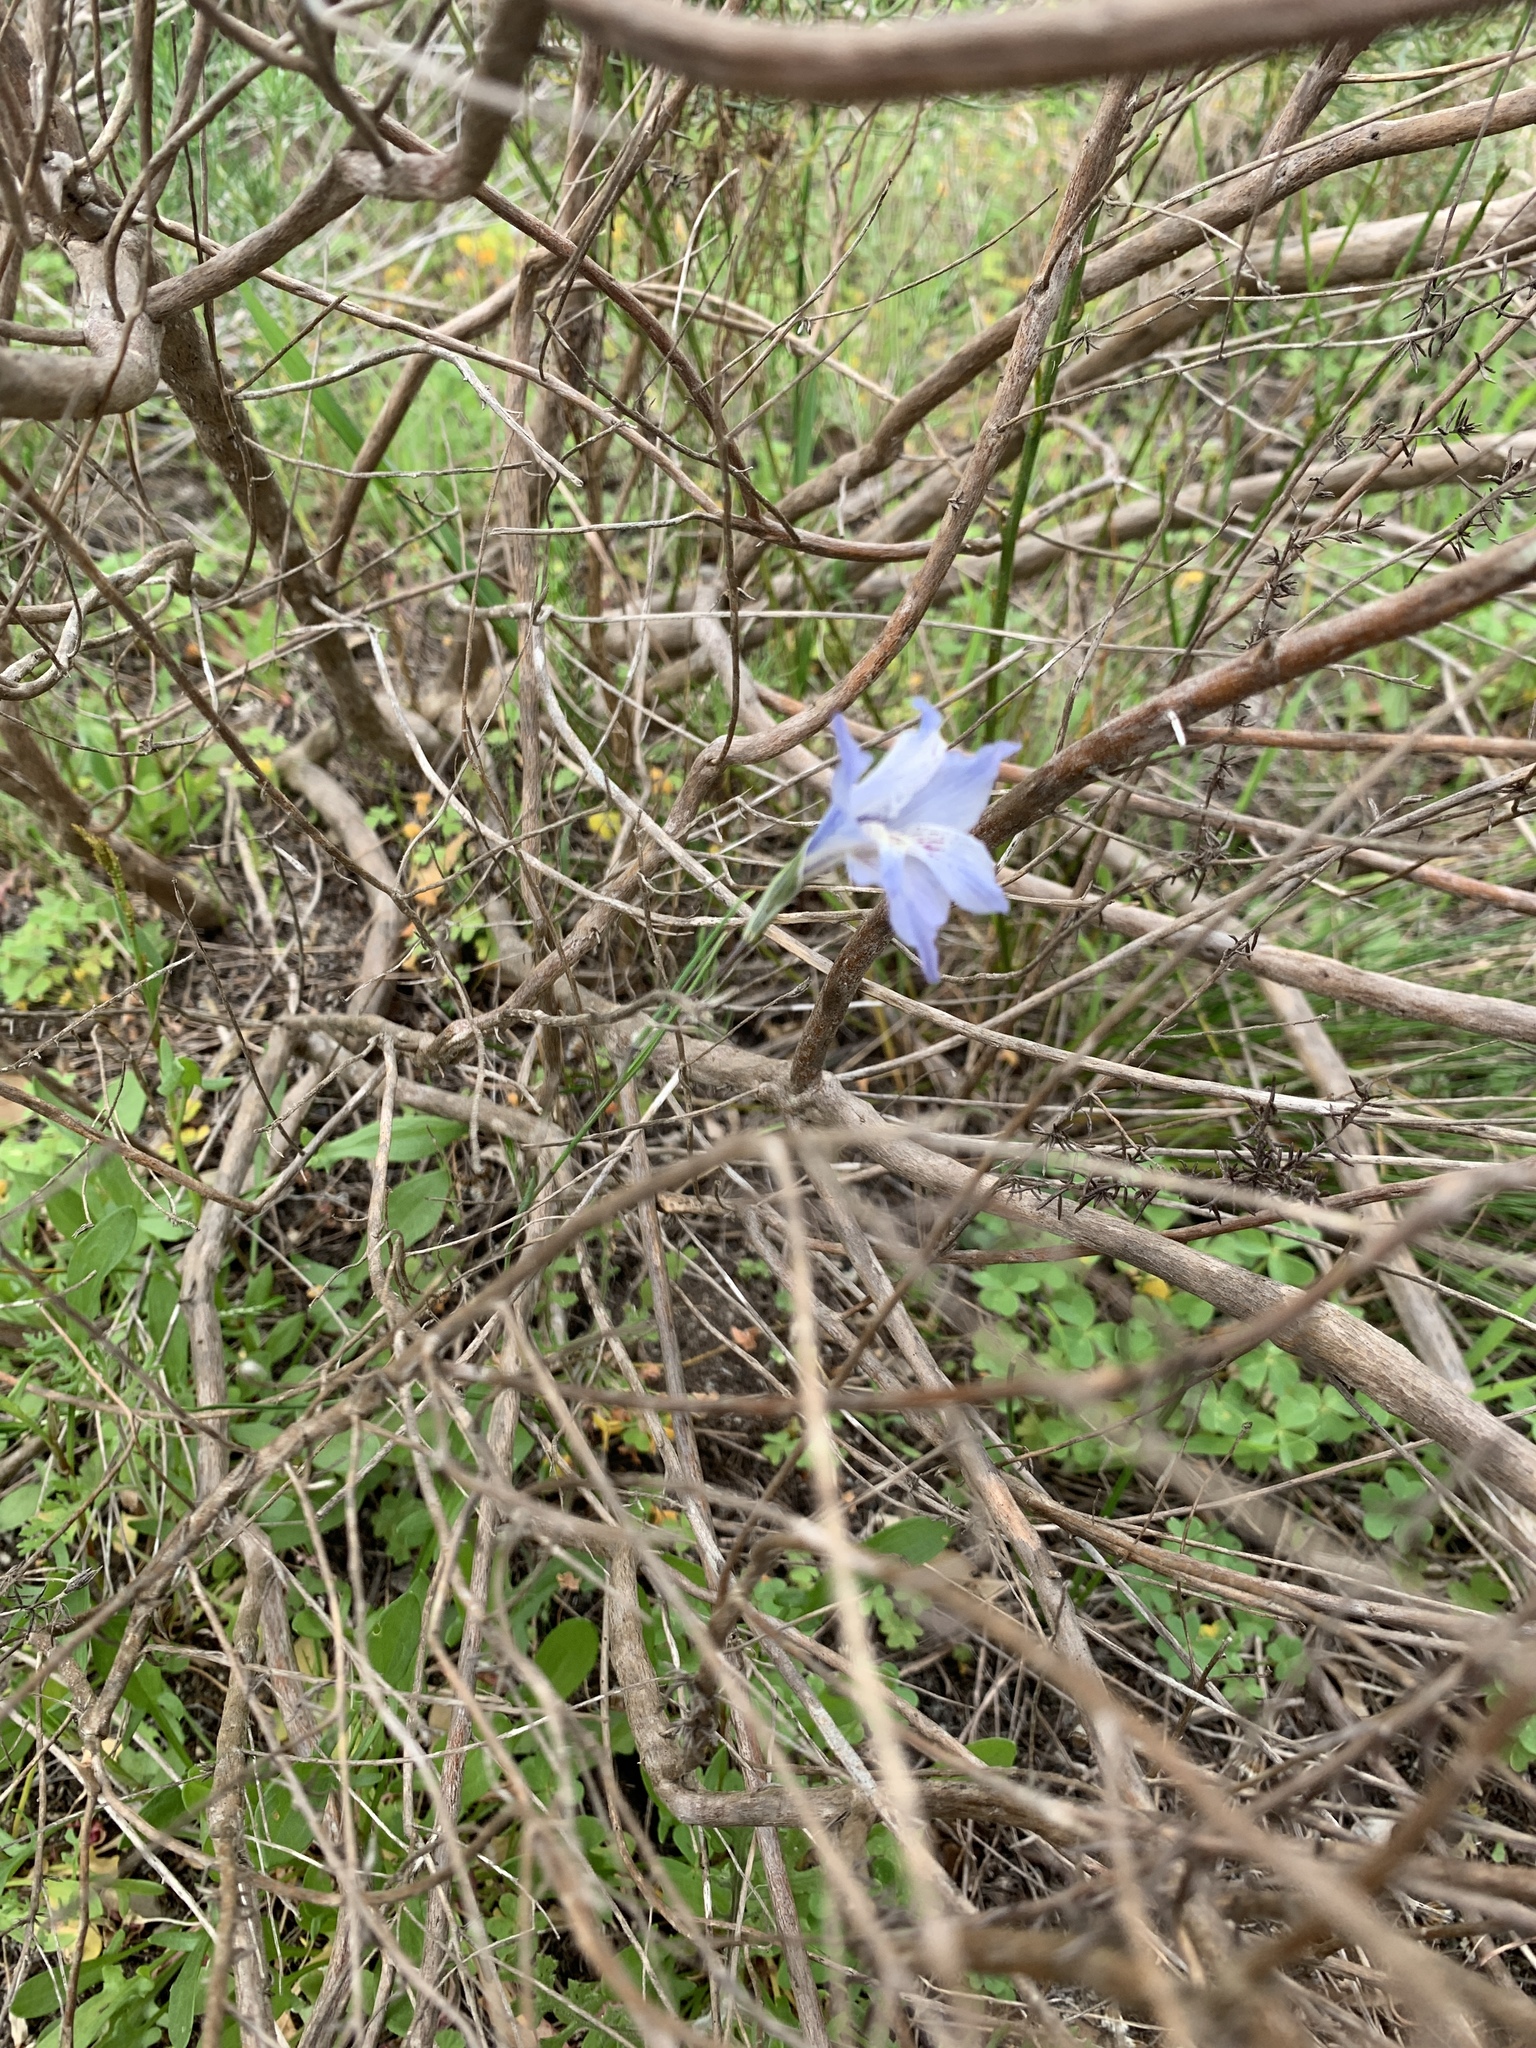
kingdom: Plantae
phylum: Tracheophyta
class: Liliopsida
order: Asparagales
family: Iridaceae
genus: Gladiolus
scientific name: Gladiolus gracilis
